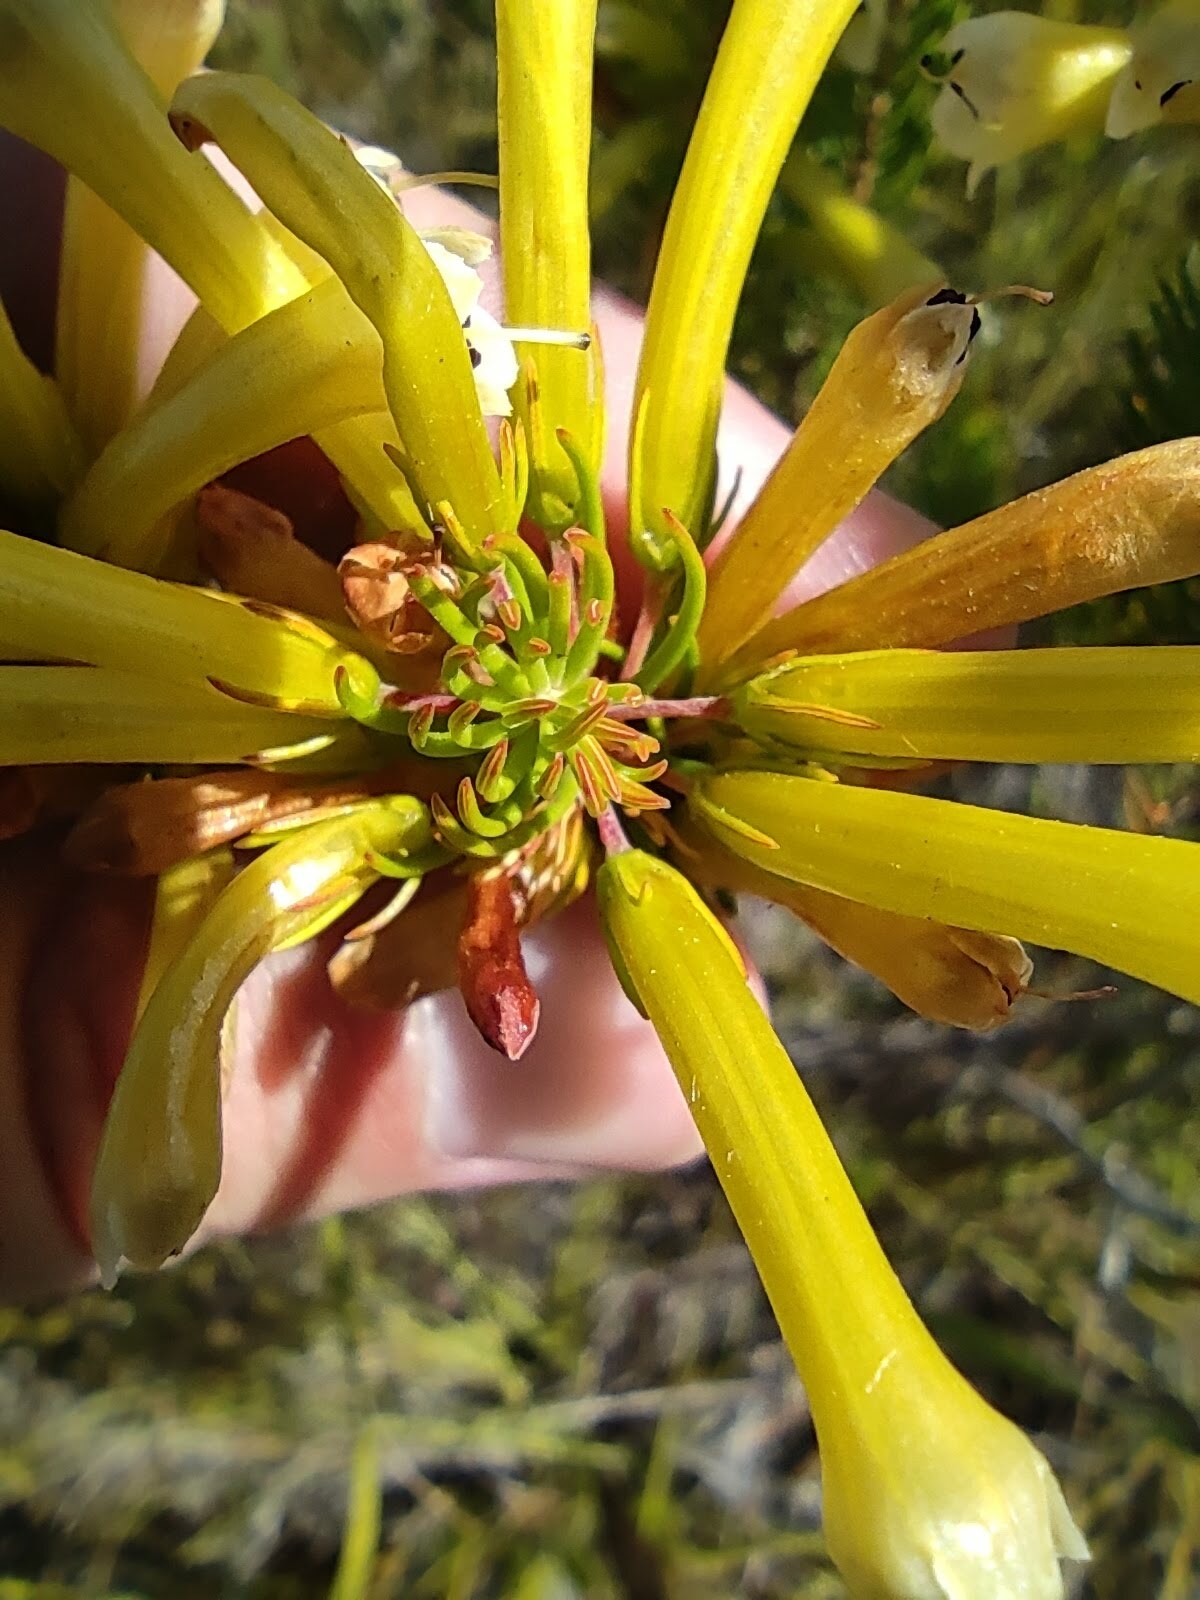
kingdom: Plantae
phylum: Tracheophyta
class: Magnoliopsida
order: Ericales
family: Ericaceae
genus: Erica
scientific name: Erica pinea
